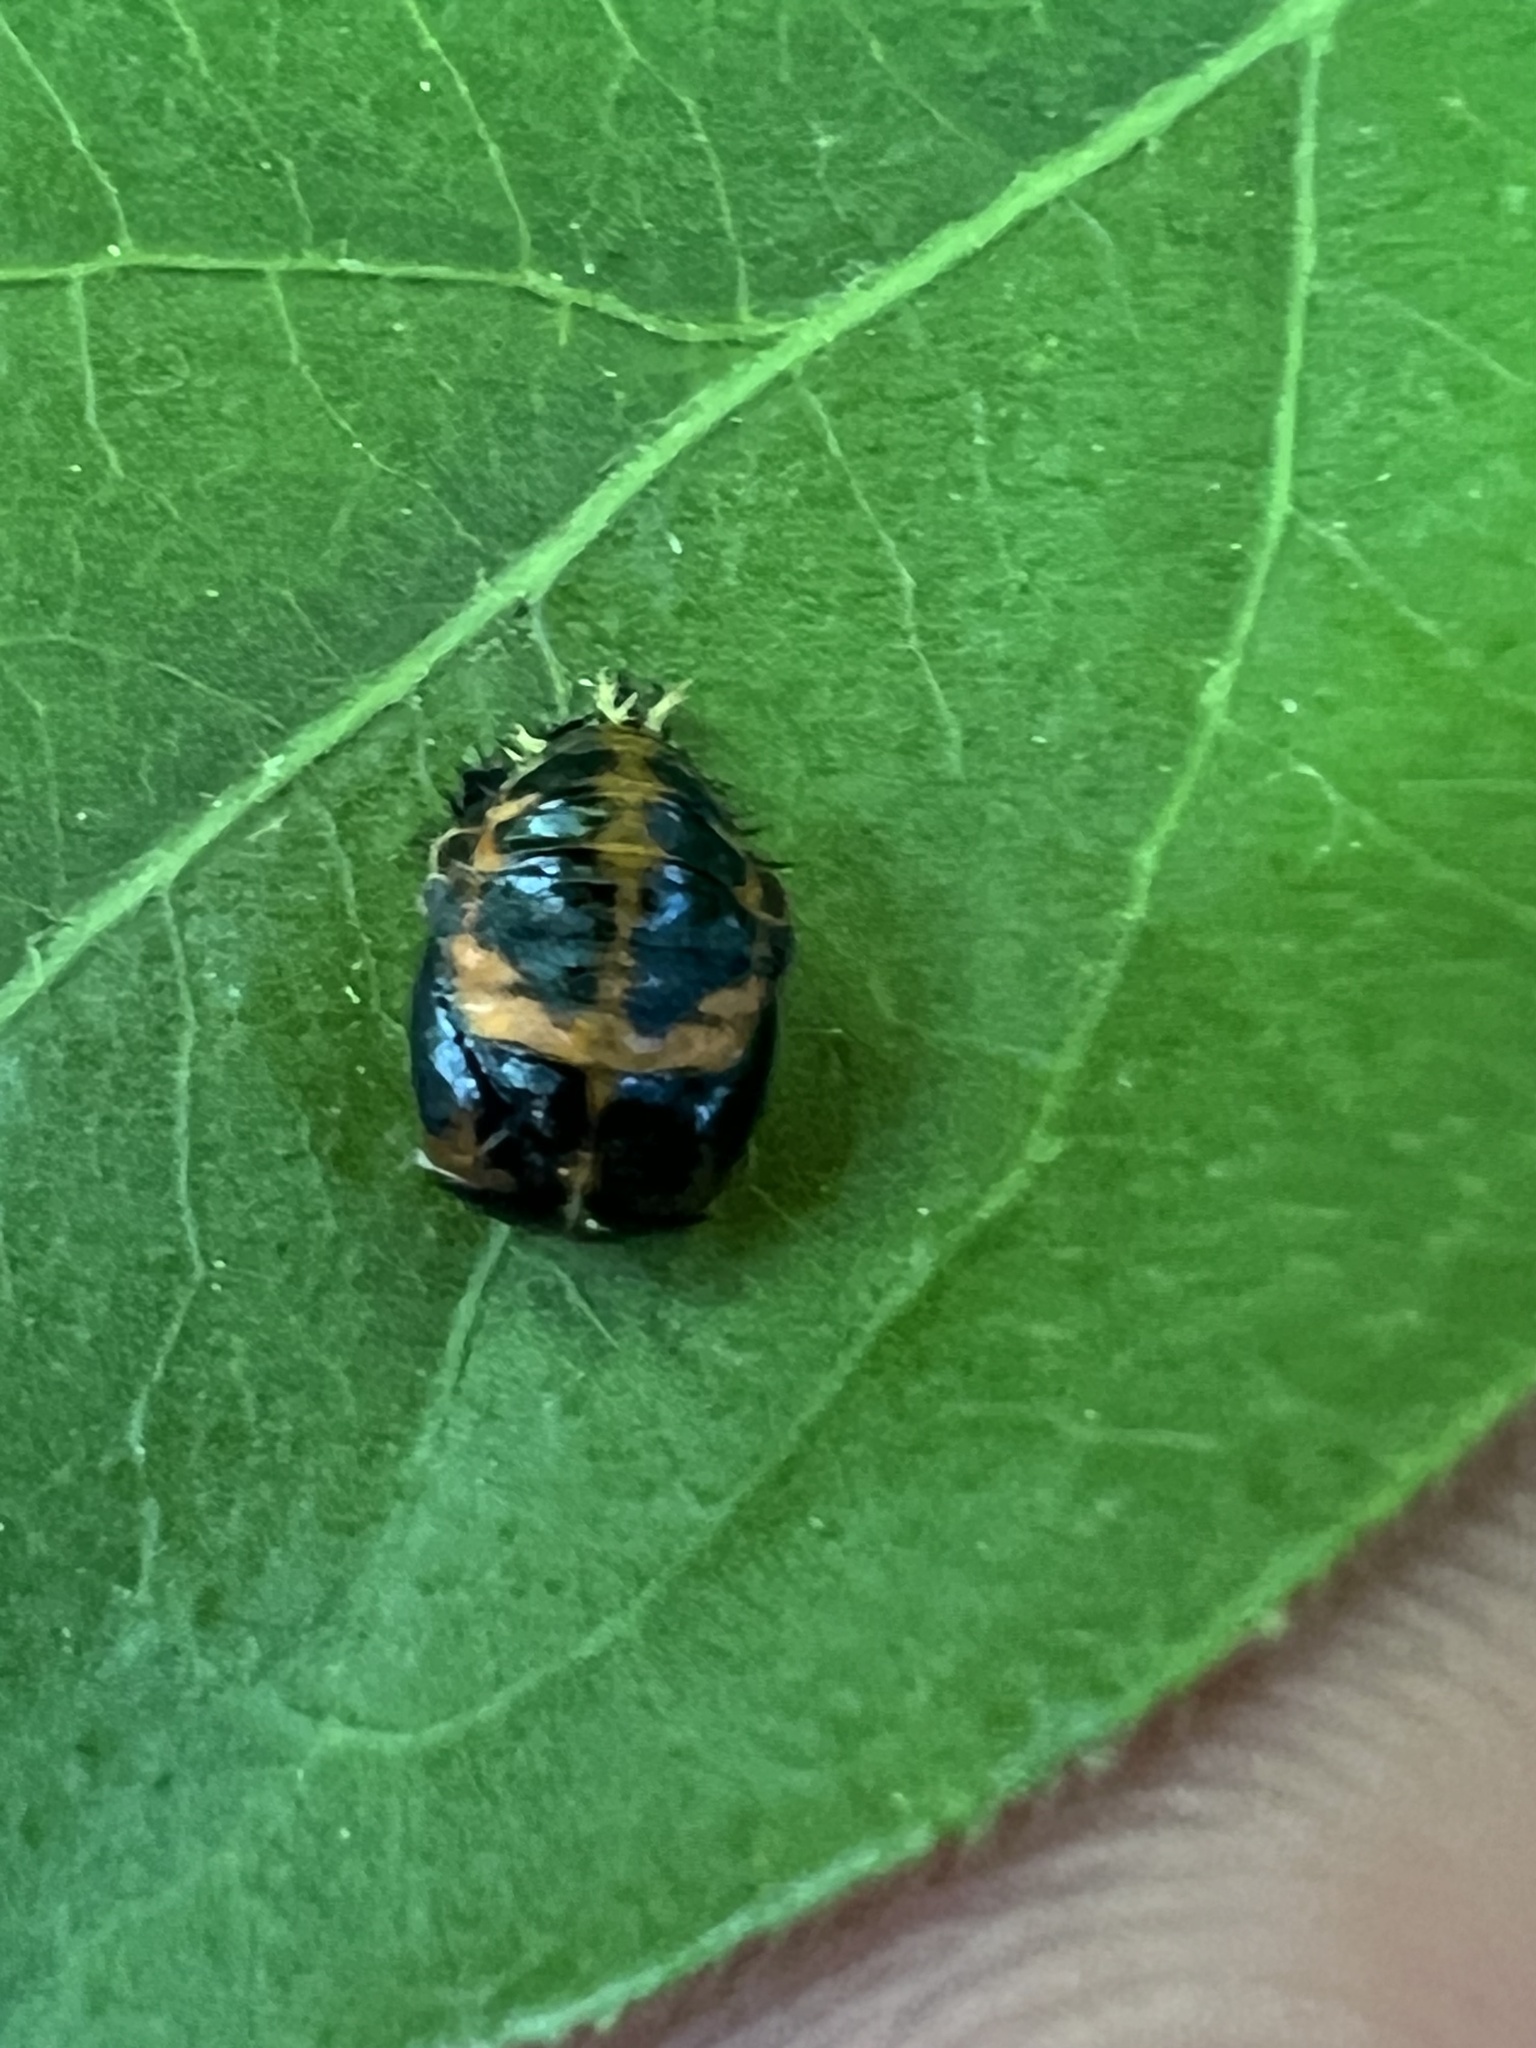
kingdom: Animalia
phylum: Arthropoda
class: Insecta
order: Coleoptera
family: Coccinellidae
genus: Harmonia
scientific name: Harmonia axyridis
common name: Harlequin ladybird
